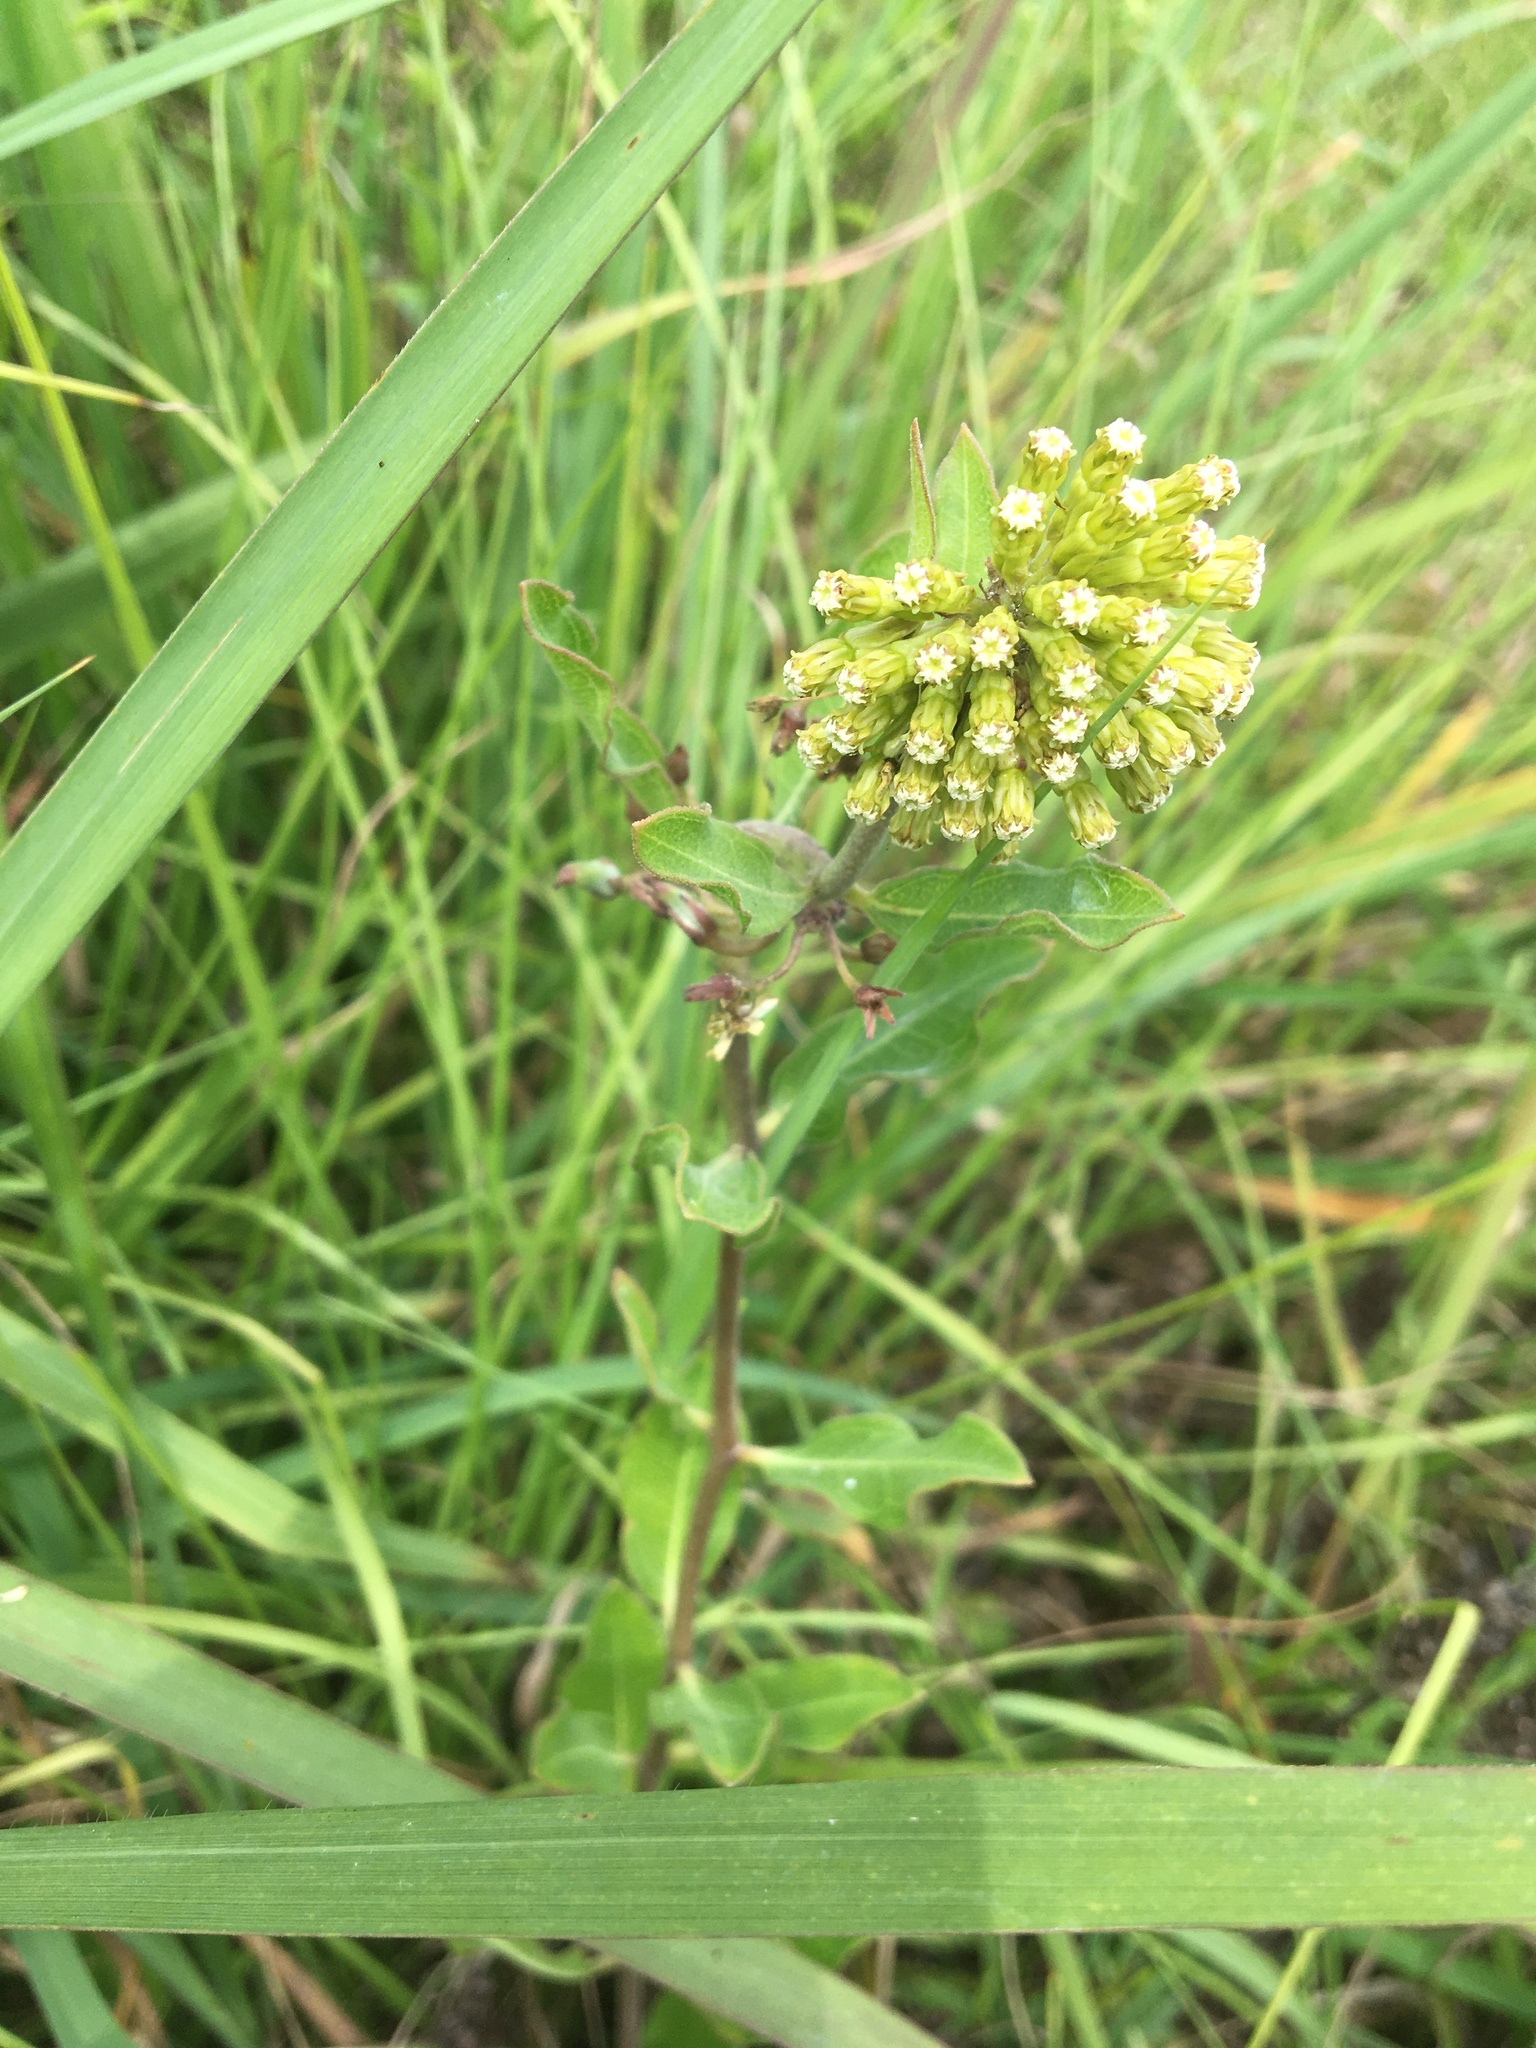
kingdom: Plantae
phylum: Tracheophyta
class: Magnoliopsida
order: Gentianales
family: Apocynaceae
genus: Asclepias
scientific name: Asclepias viridiflora
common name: Green comet milkweed
